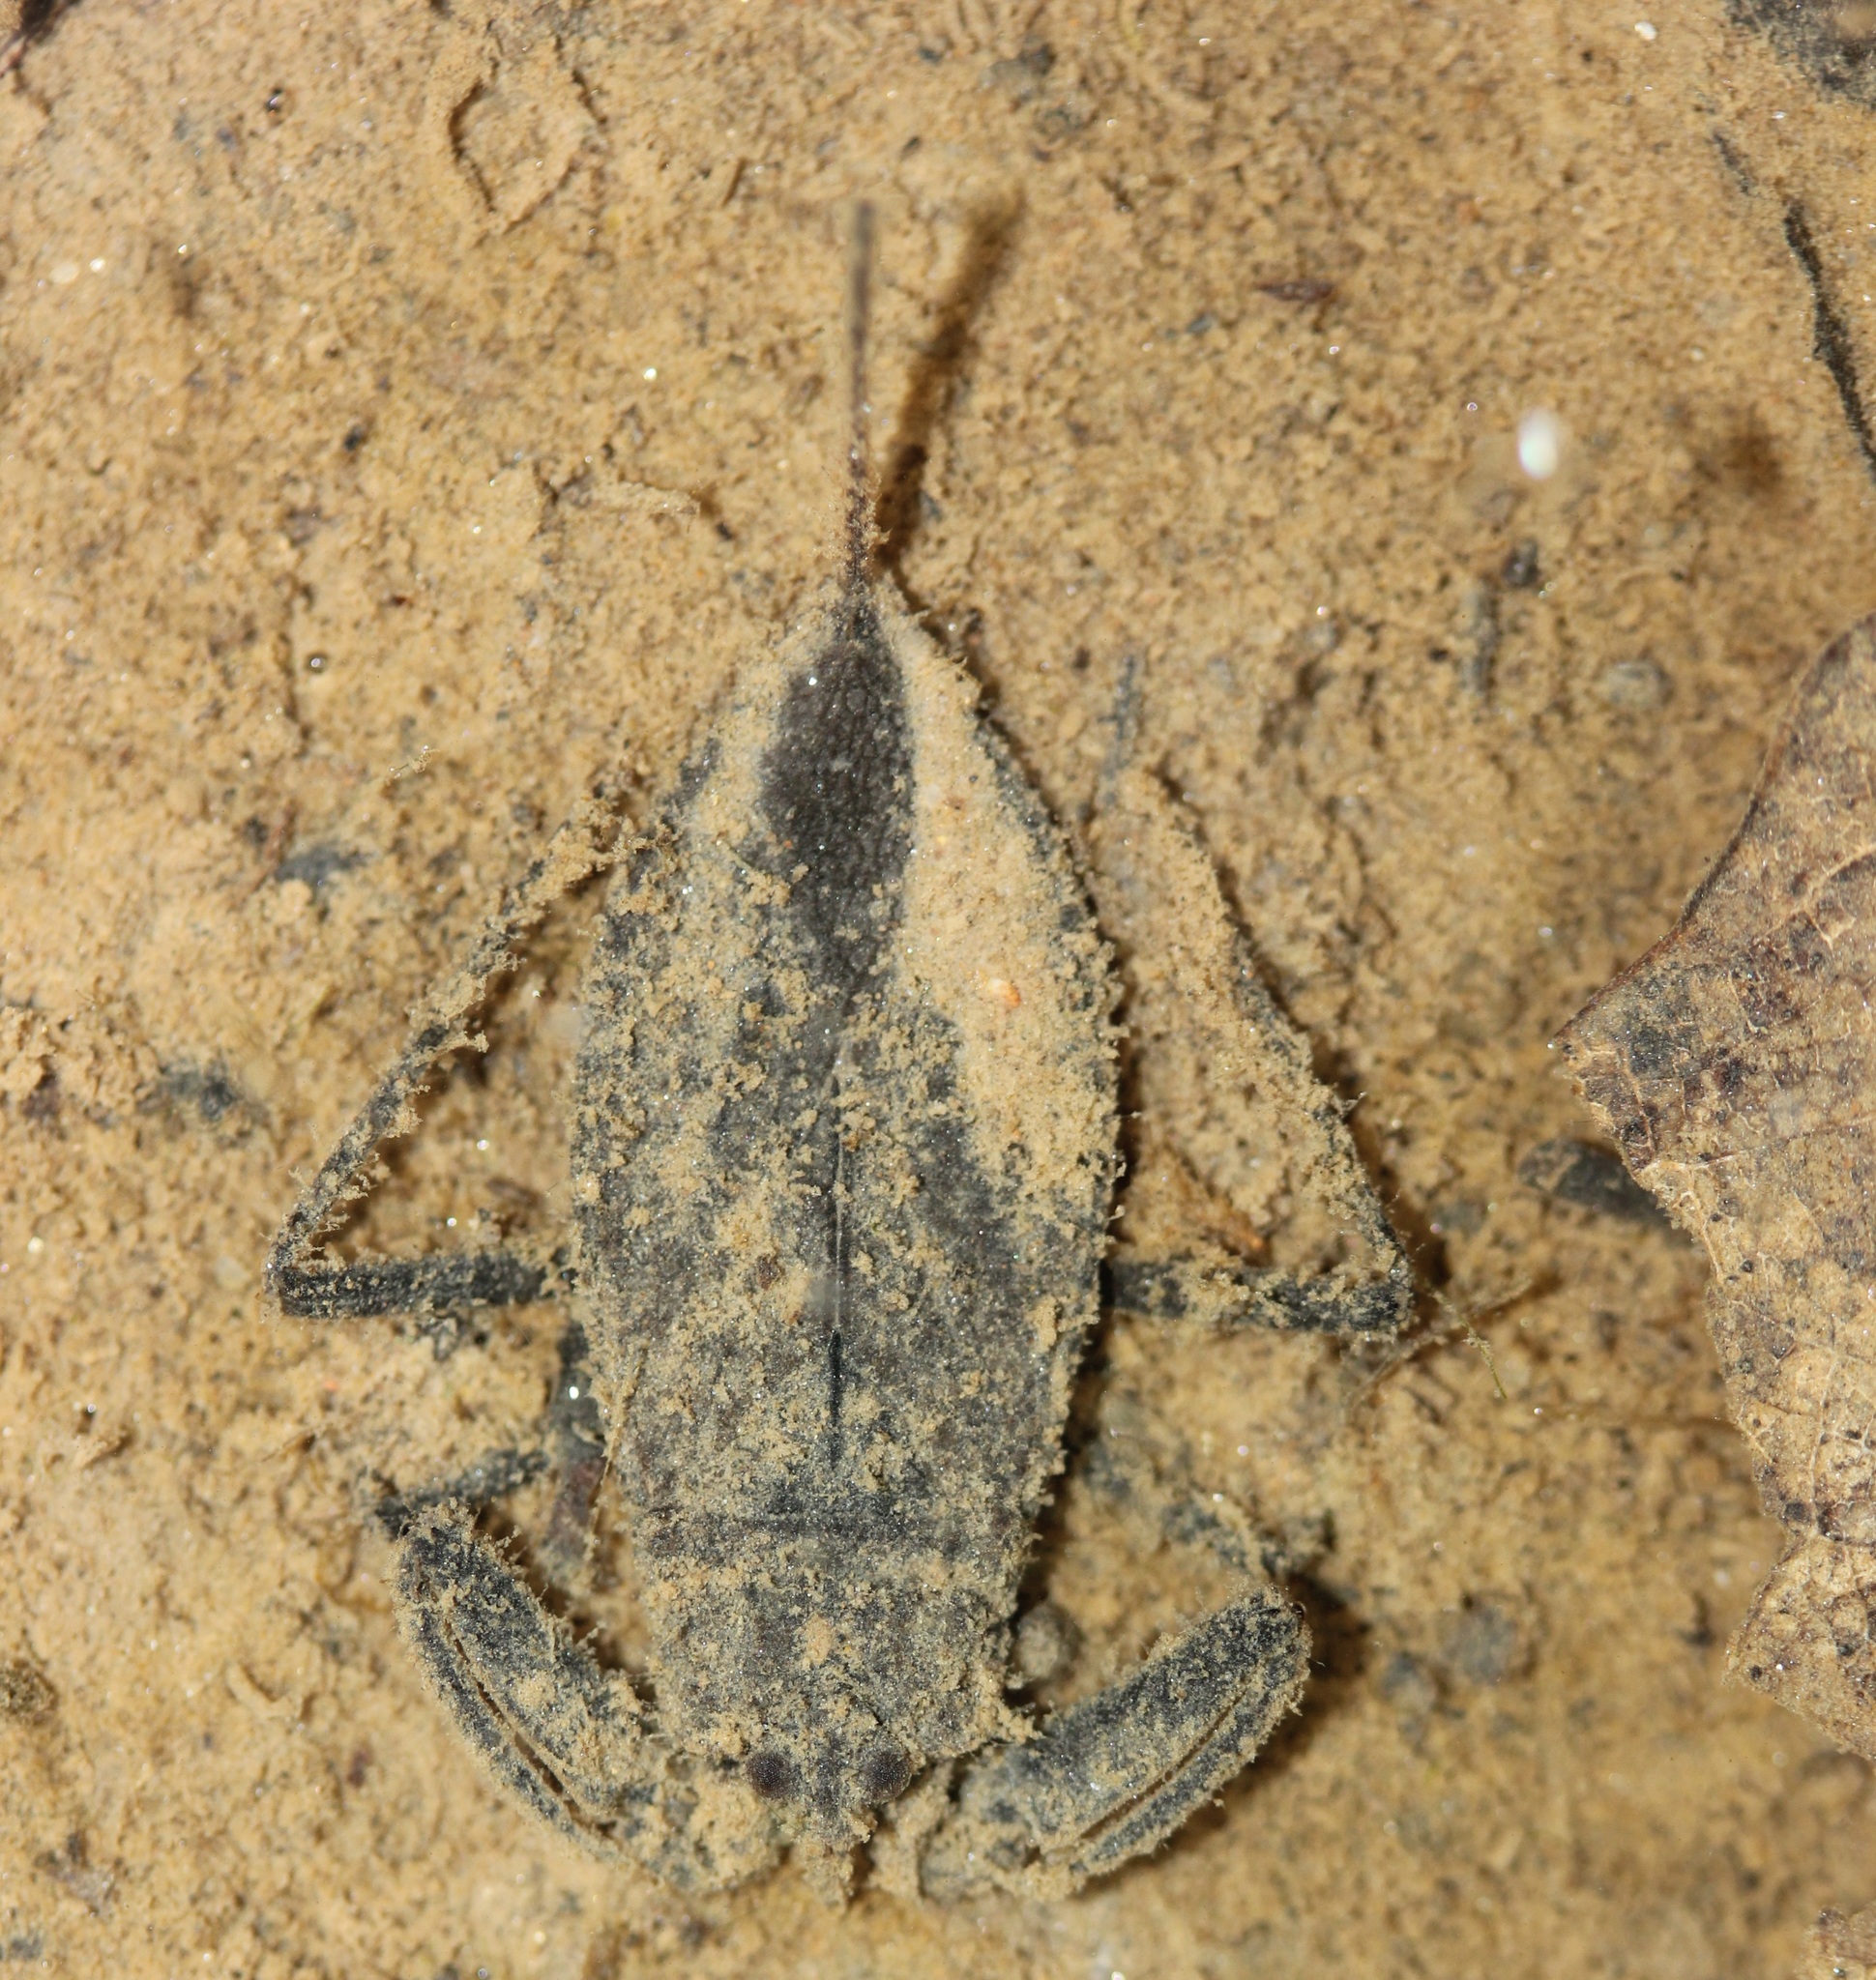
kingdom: Animalia
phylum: Arthropoda
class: Insecta
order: Hemiptera
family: Nepidae
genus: Nepa
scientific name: Nepa apiculata
